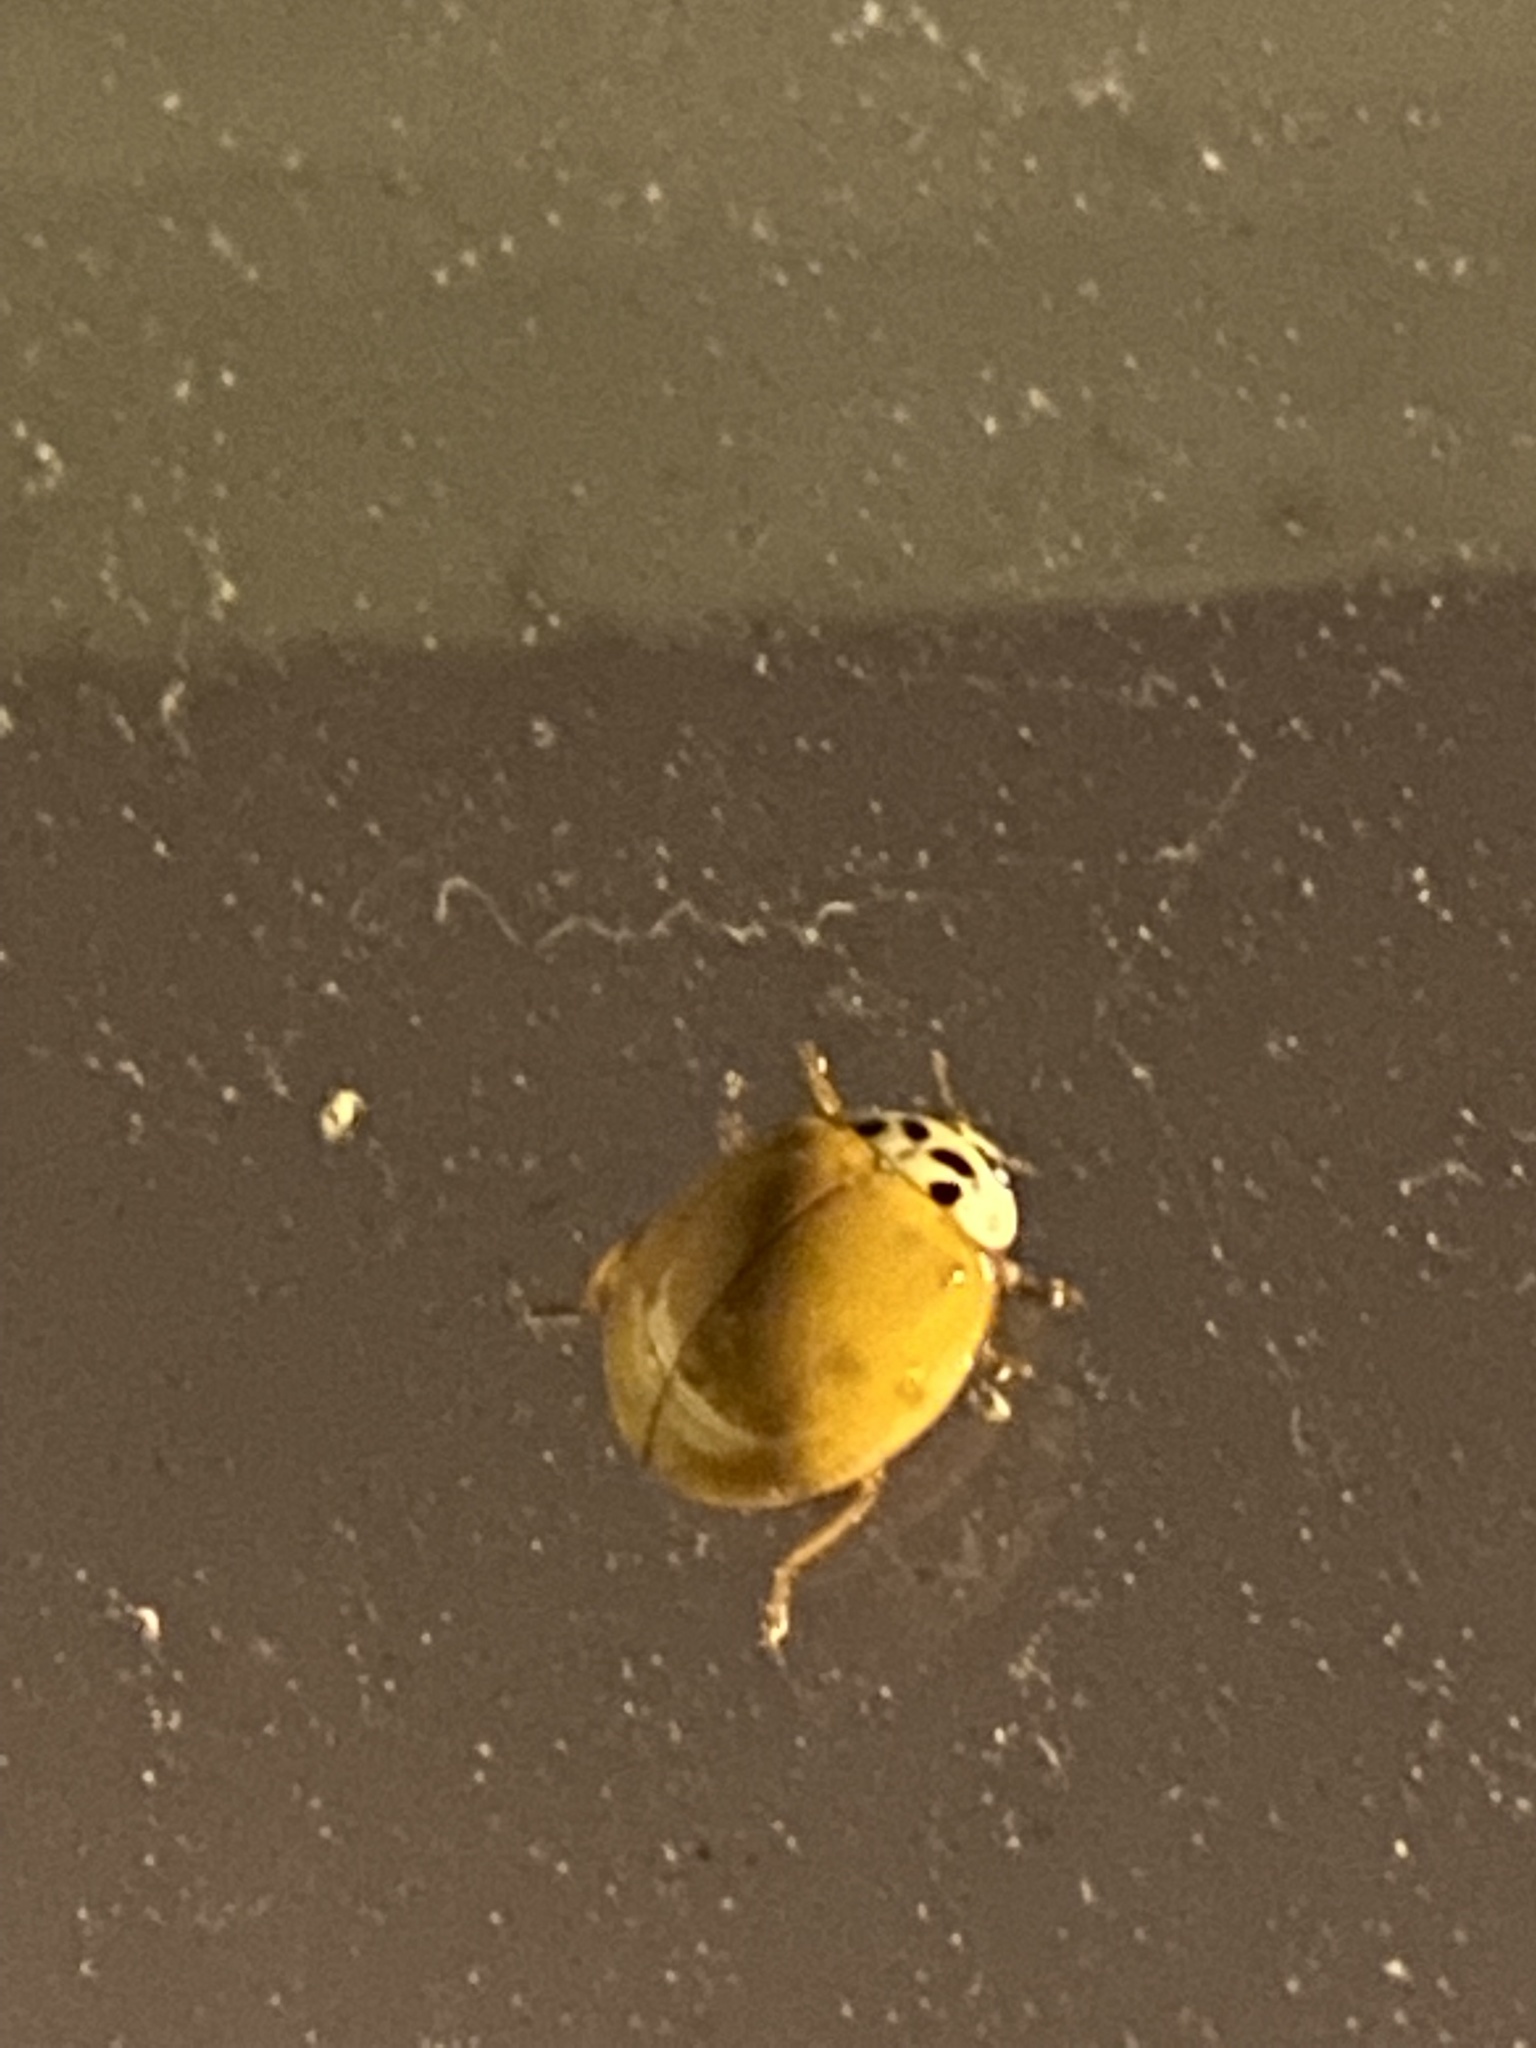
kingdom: Animalia
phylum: Arthropoda
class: Insecta
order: Coleoptera
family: Coccinellidae
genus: Harmonia
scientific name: Harmonia axyridis
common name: Harlequin ladybird
